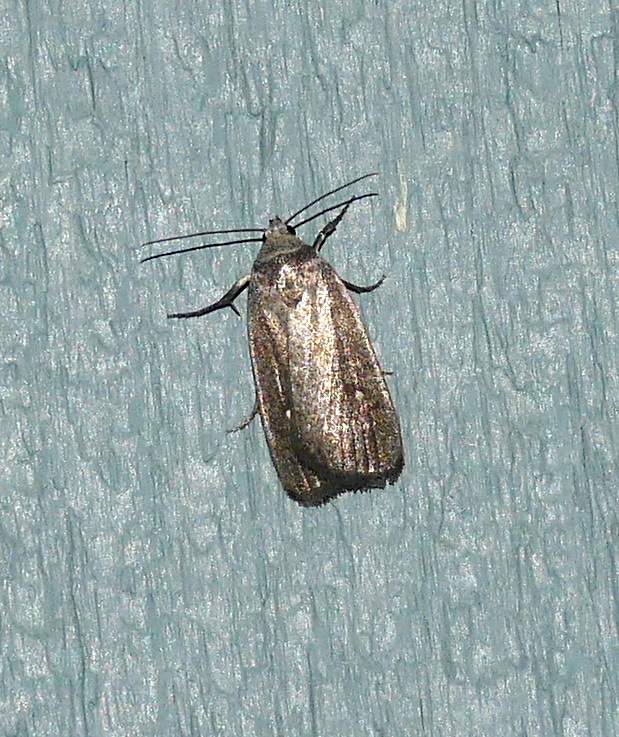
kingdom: Animalia
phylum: Arthropoda
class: Insecta
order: Lepidoptera
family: Noctuidae
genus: Proxenus
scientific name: Proxenus miranda
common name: Miranda moth
